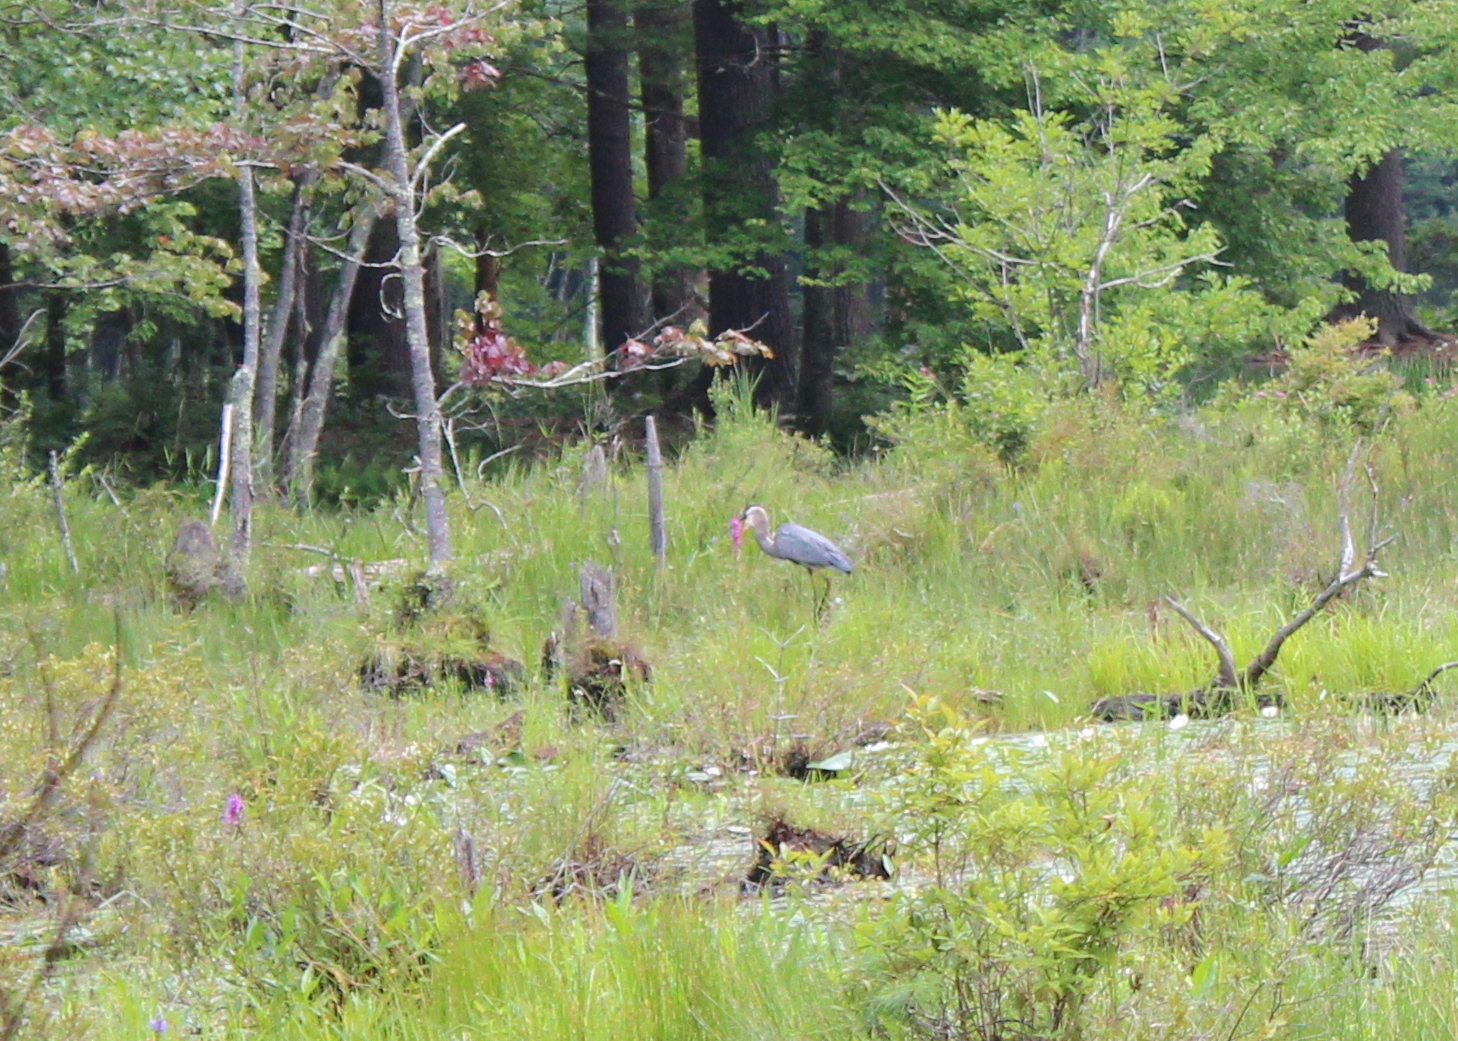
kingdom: Animalia
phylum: Chordata
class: Aves
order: Pelecaniformes
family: Ardeidae
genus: Ardea
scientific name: Ardea herodias
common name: Great blue heron
